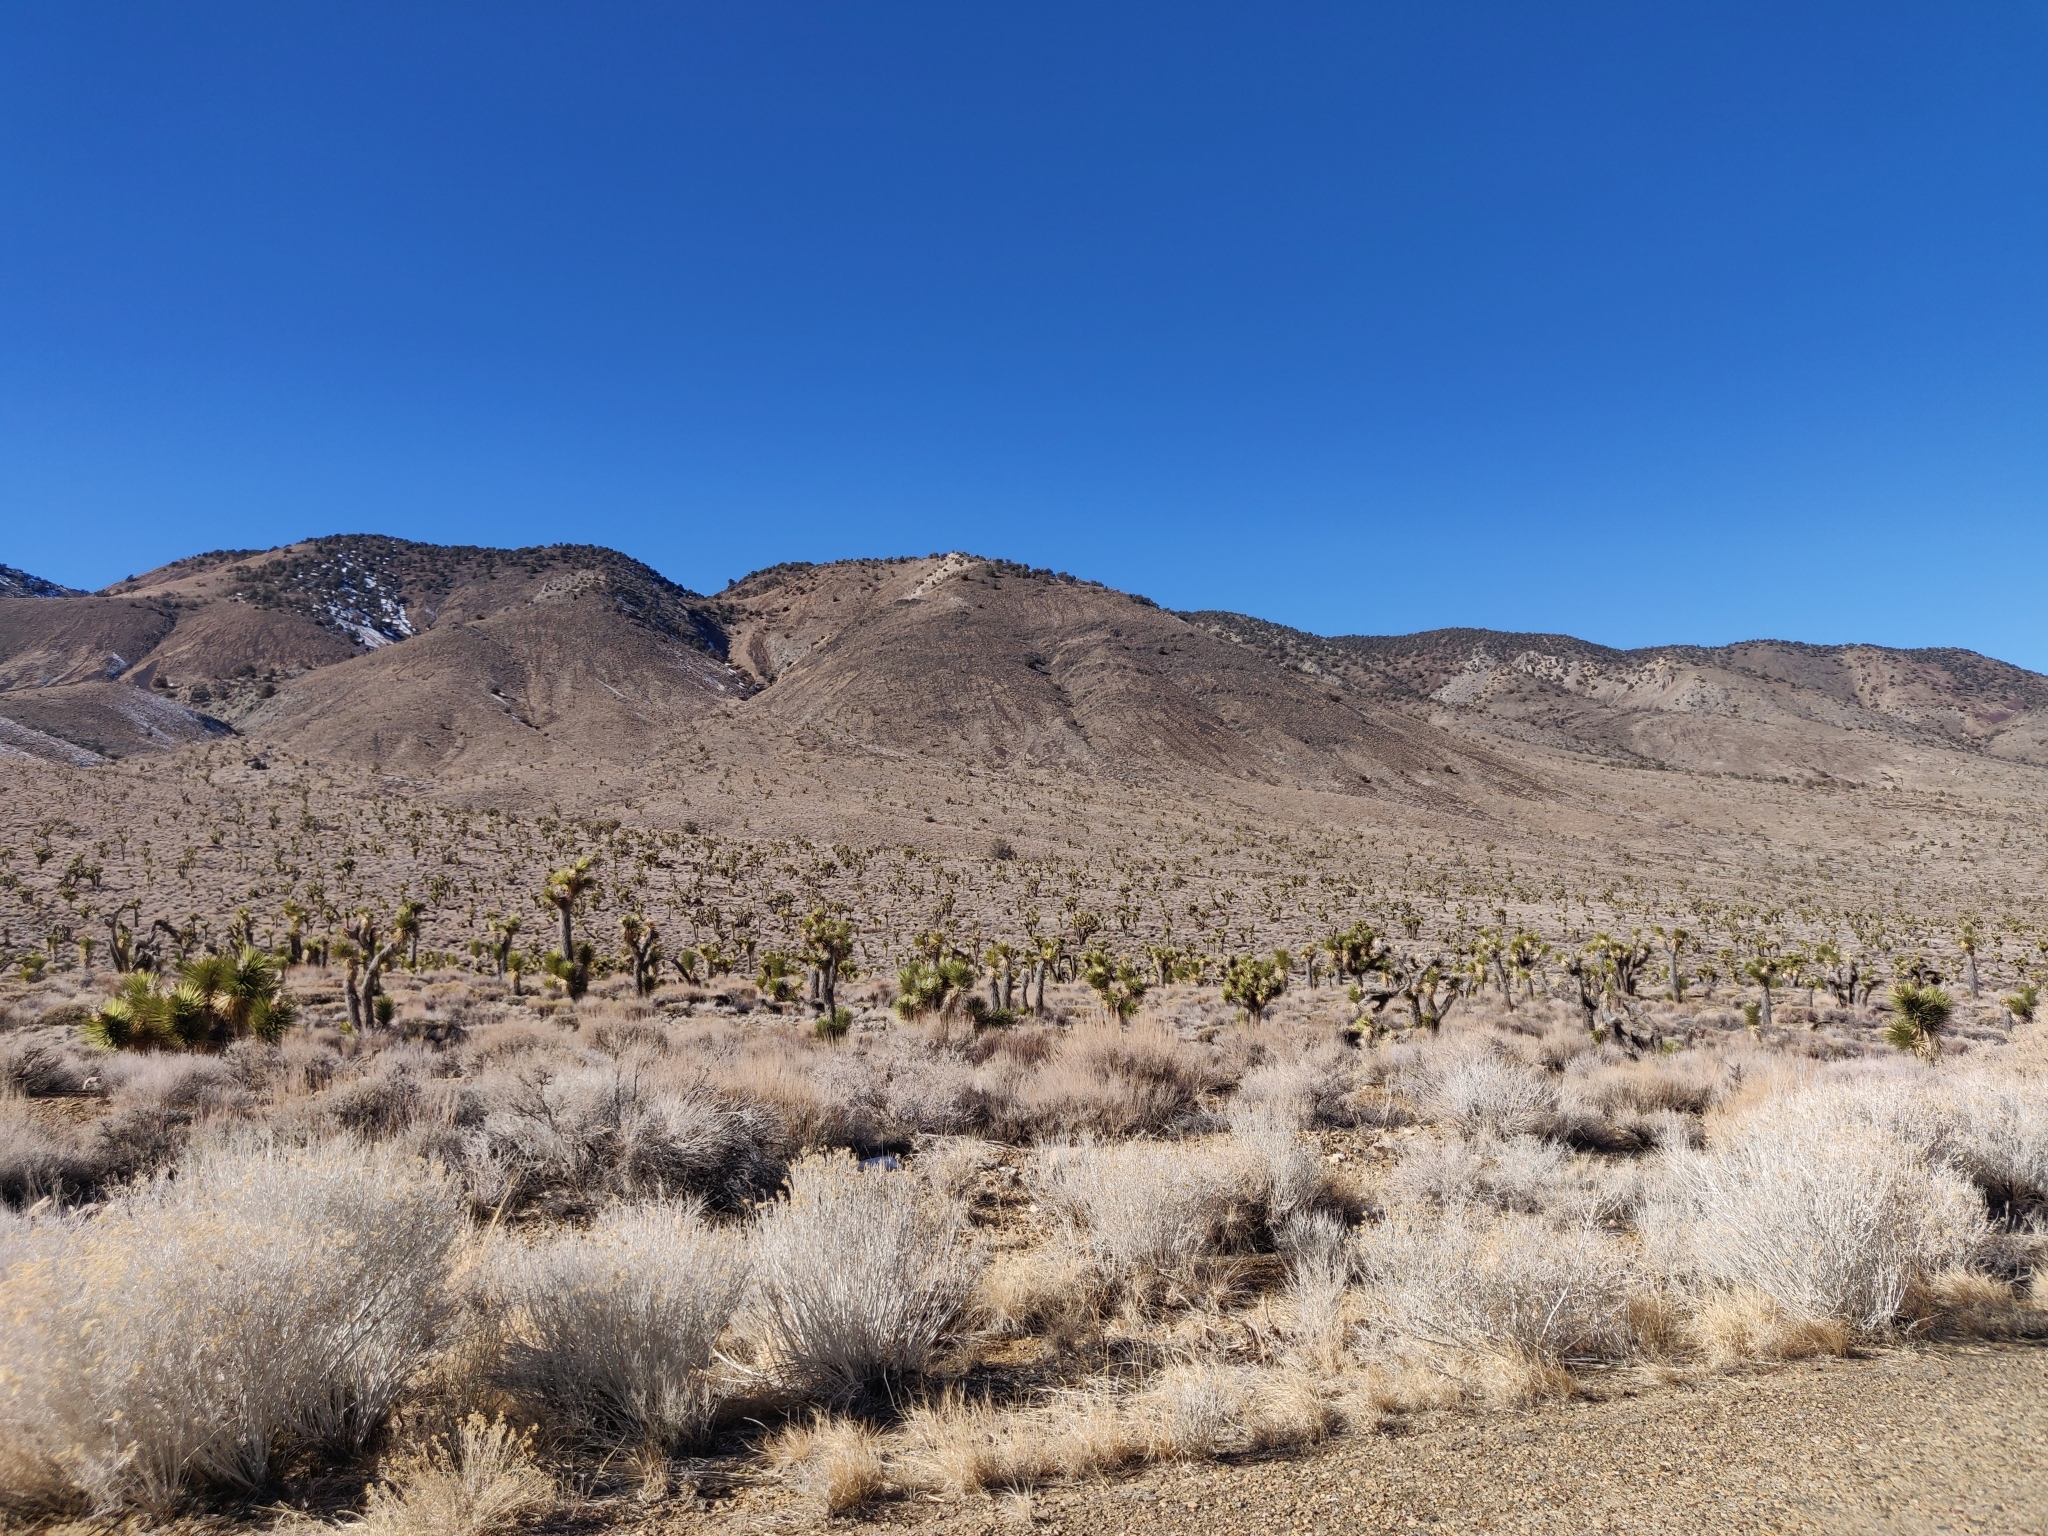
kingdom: Plantae
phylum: Tracheophyta
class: Liliopsida
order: Asparagales
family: Asparagaceae
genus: Yucca
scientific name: Yucca brevifolia
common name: Joshua tree
